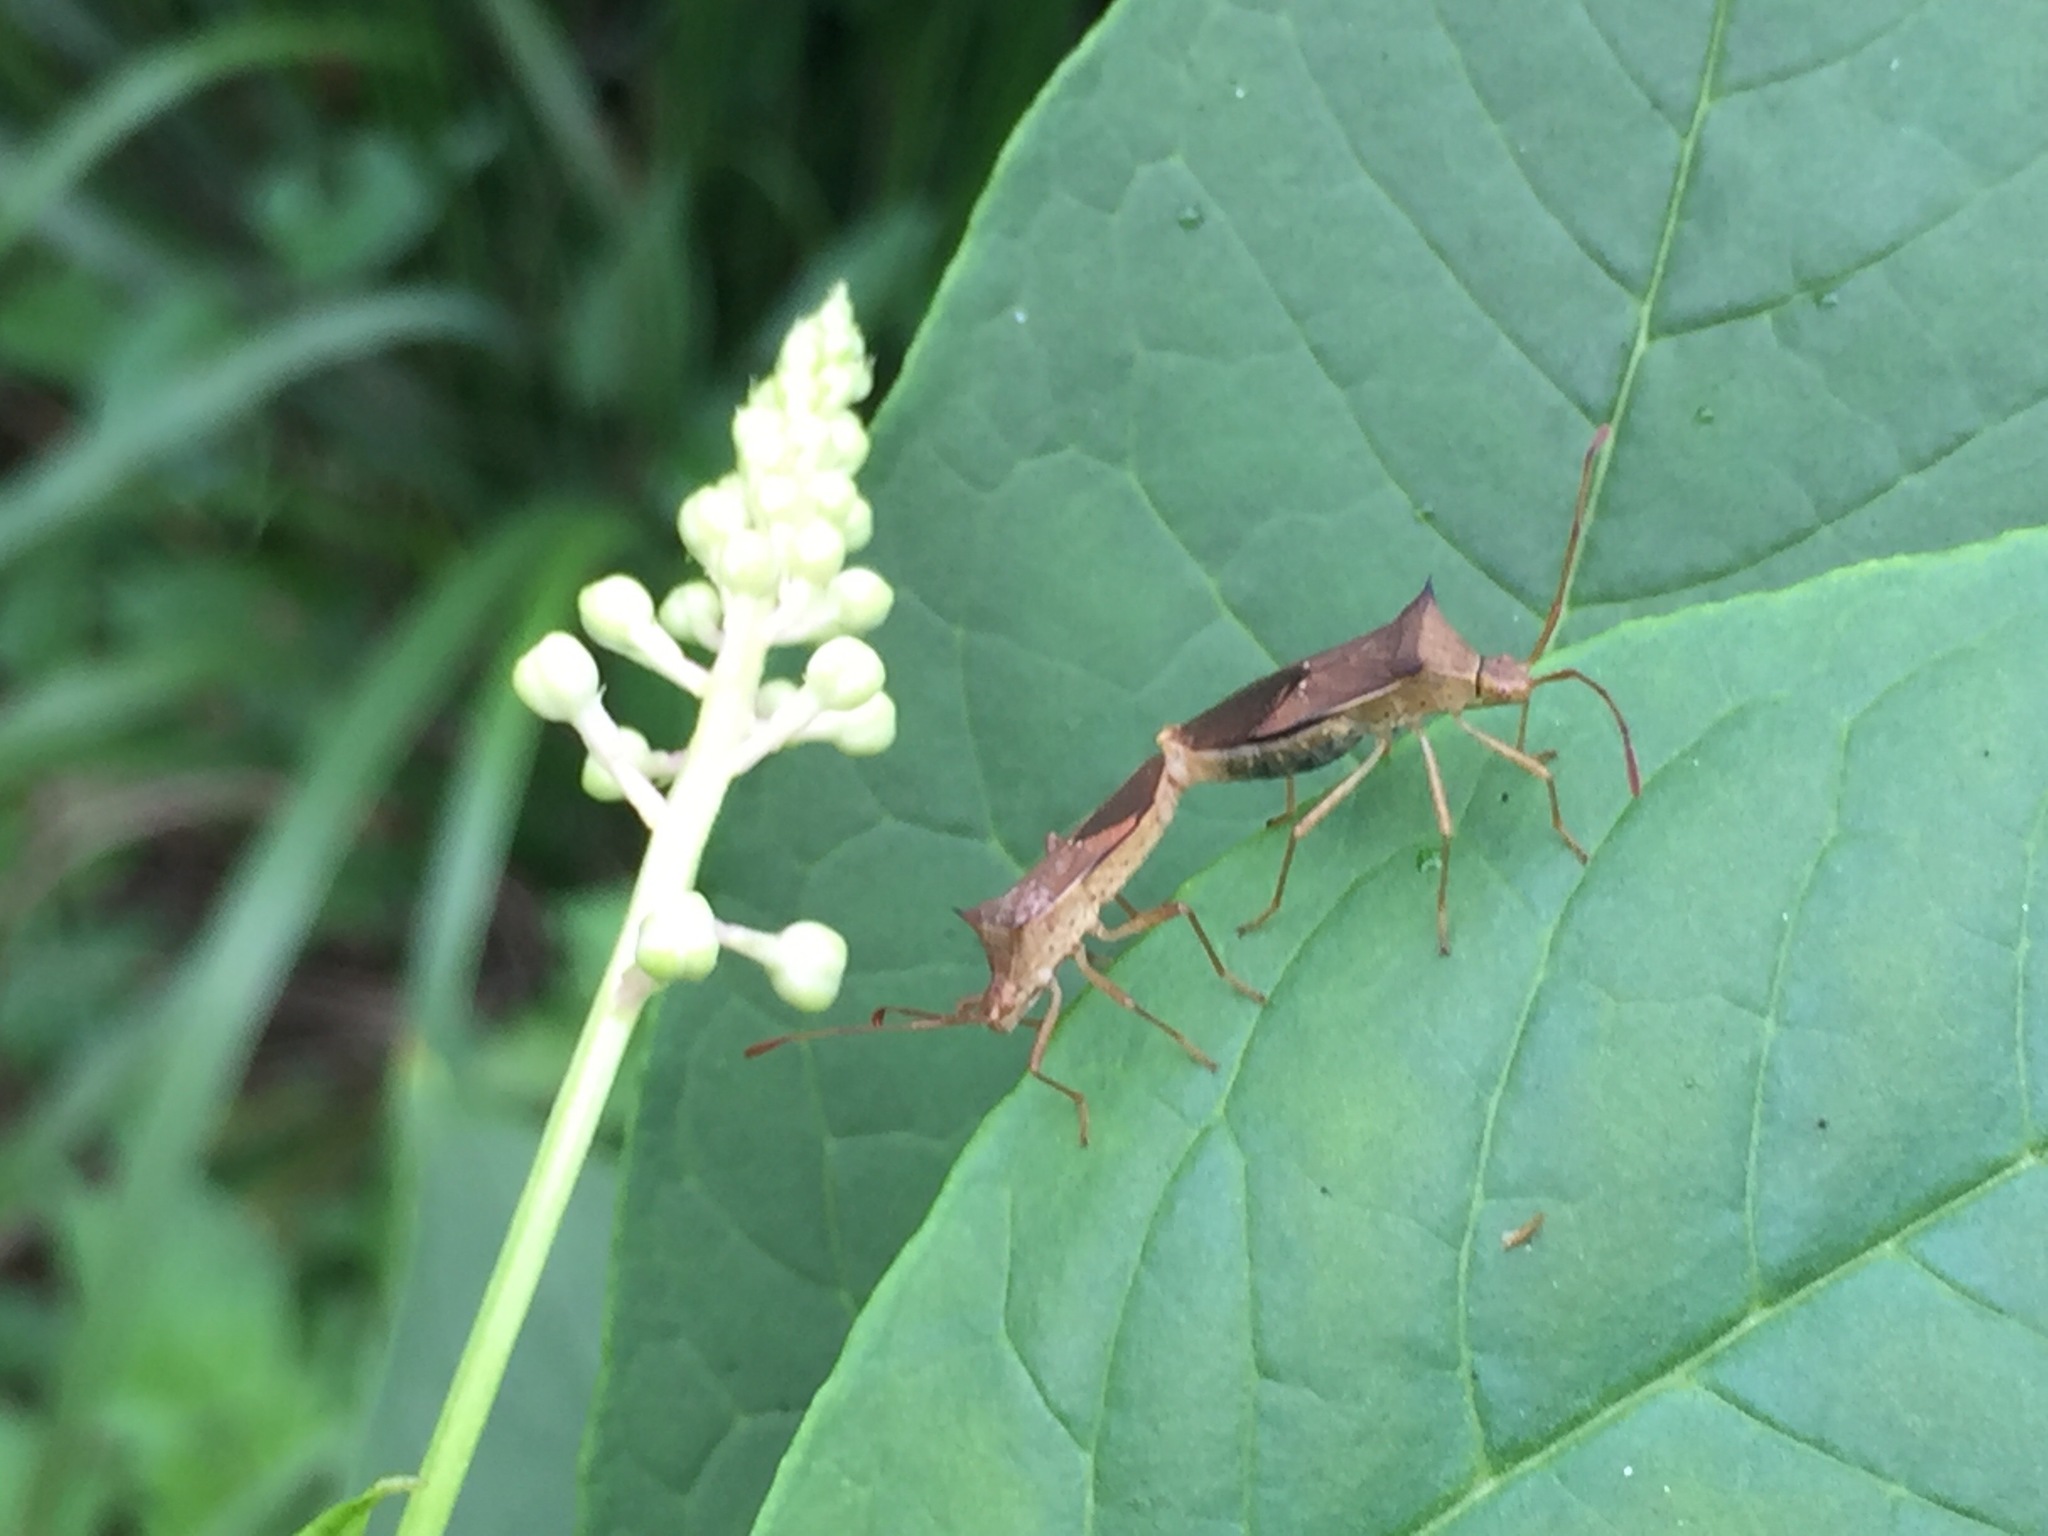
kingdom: Animalia
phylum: Arthropoda
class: Insecta
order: Hemiptera
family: Coreidae
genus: Cletus
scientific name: Cletus schmidti
